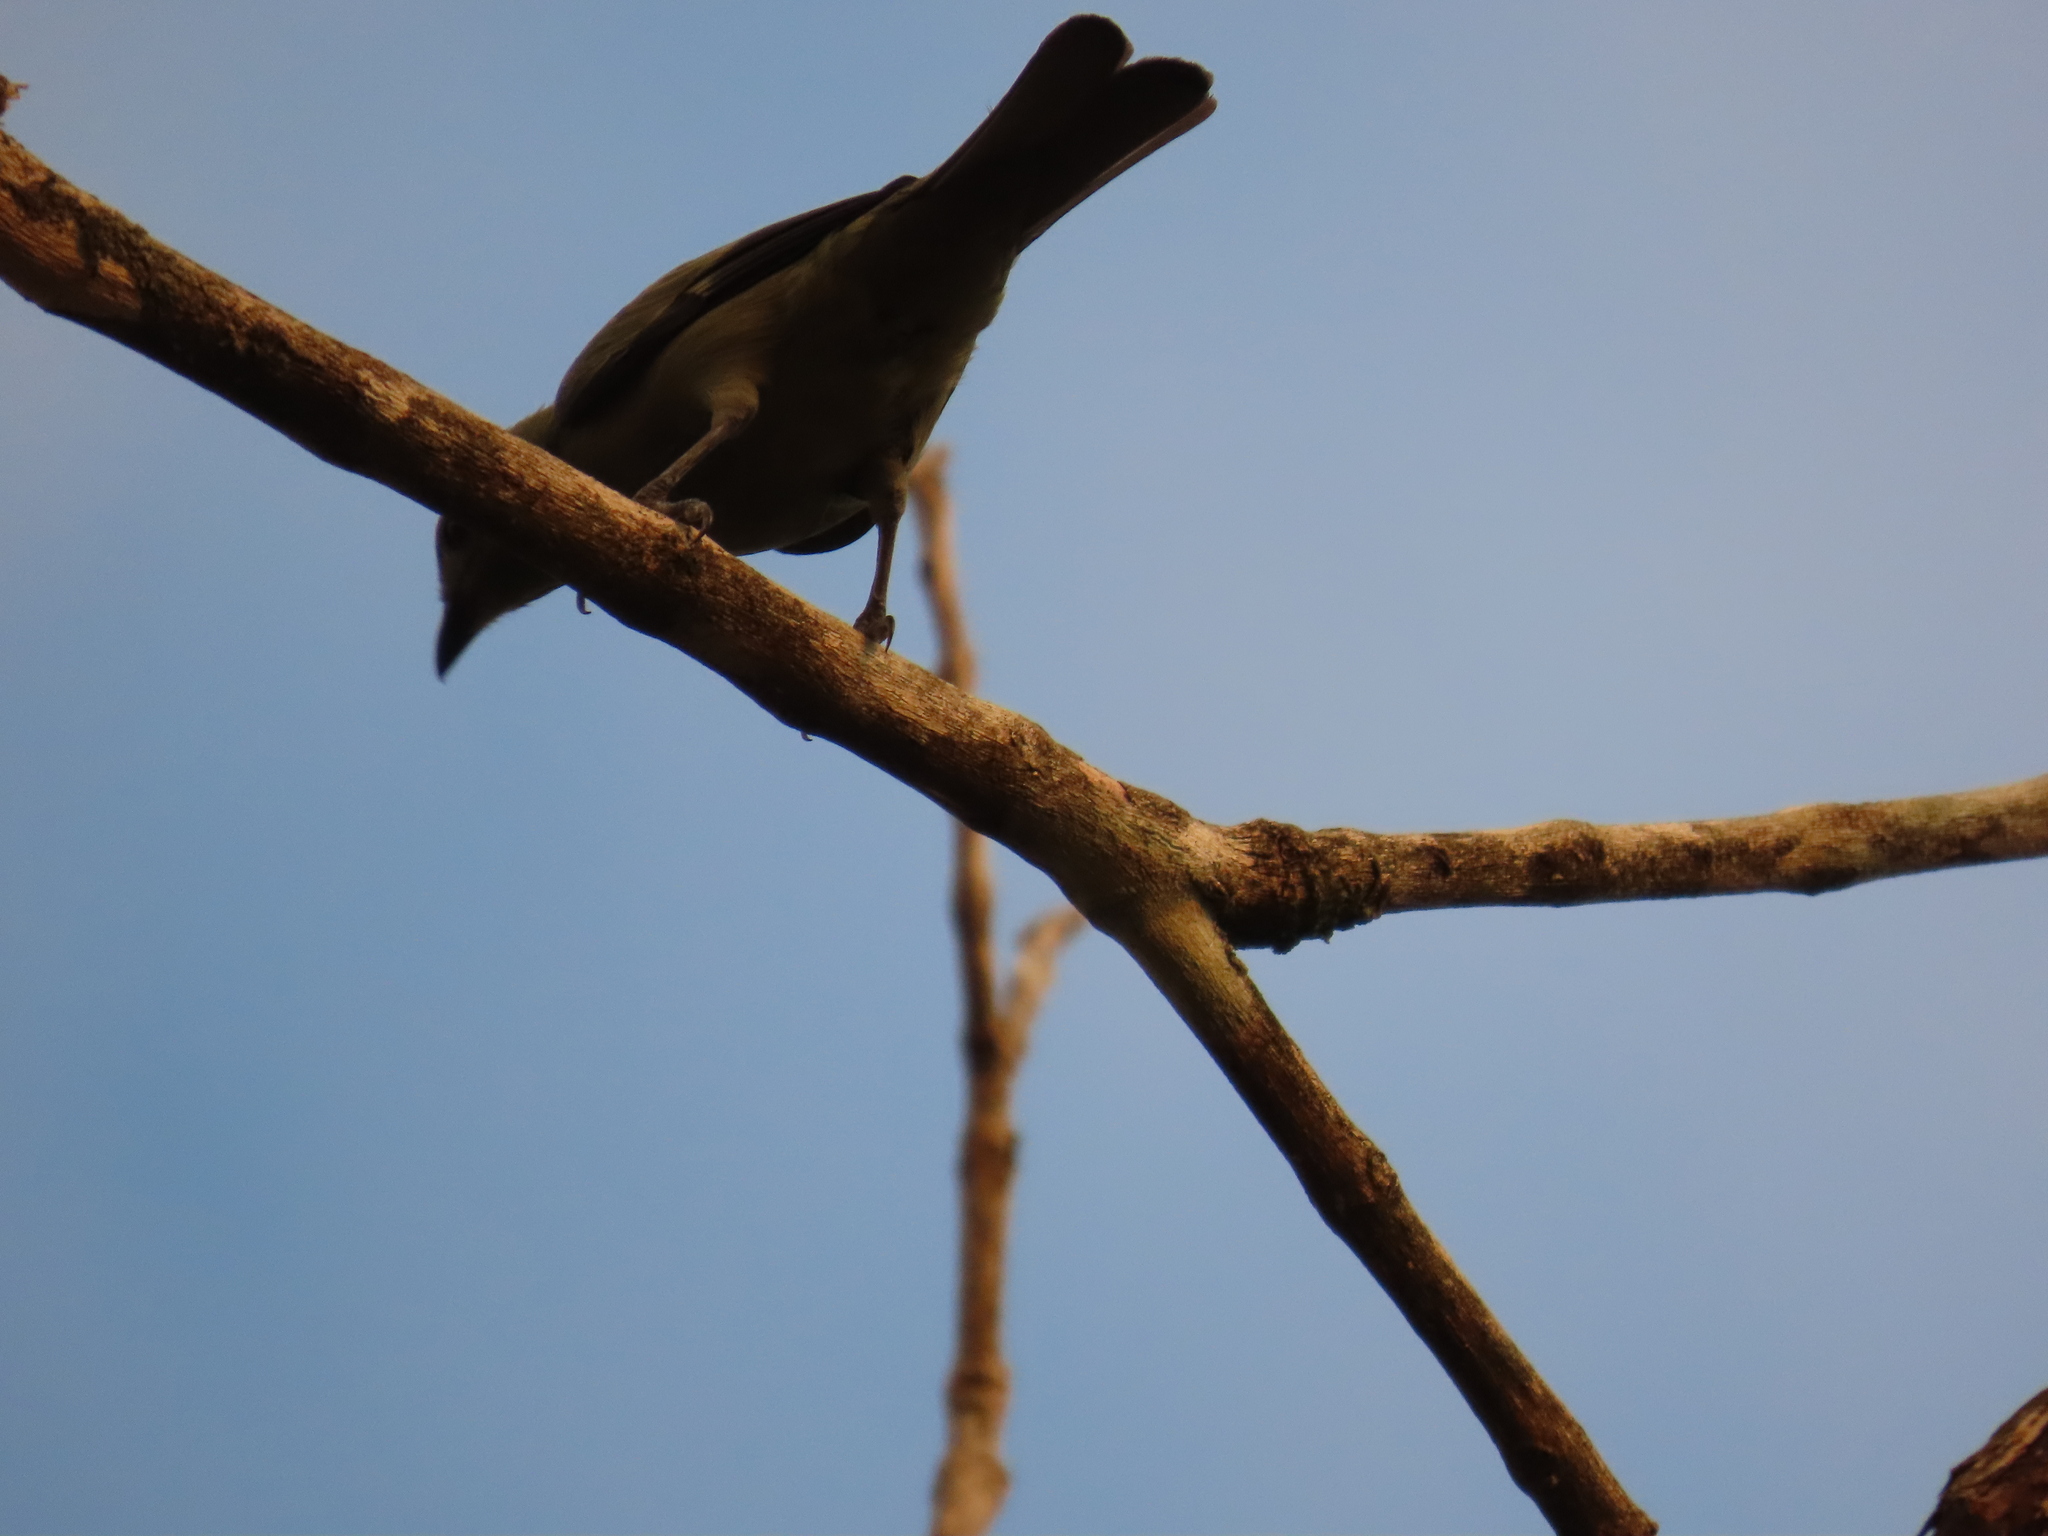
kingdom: Animalia
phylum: Chordata
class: Aves
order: Passeriformes
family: Thraupidae
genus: Thraupis
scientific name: Thraupis palmarum
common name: Palm tanager
